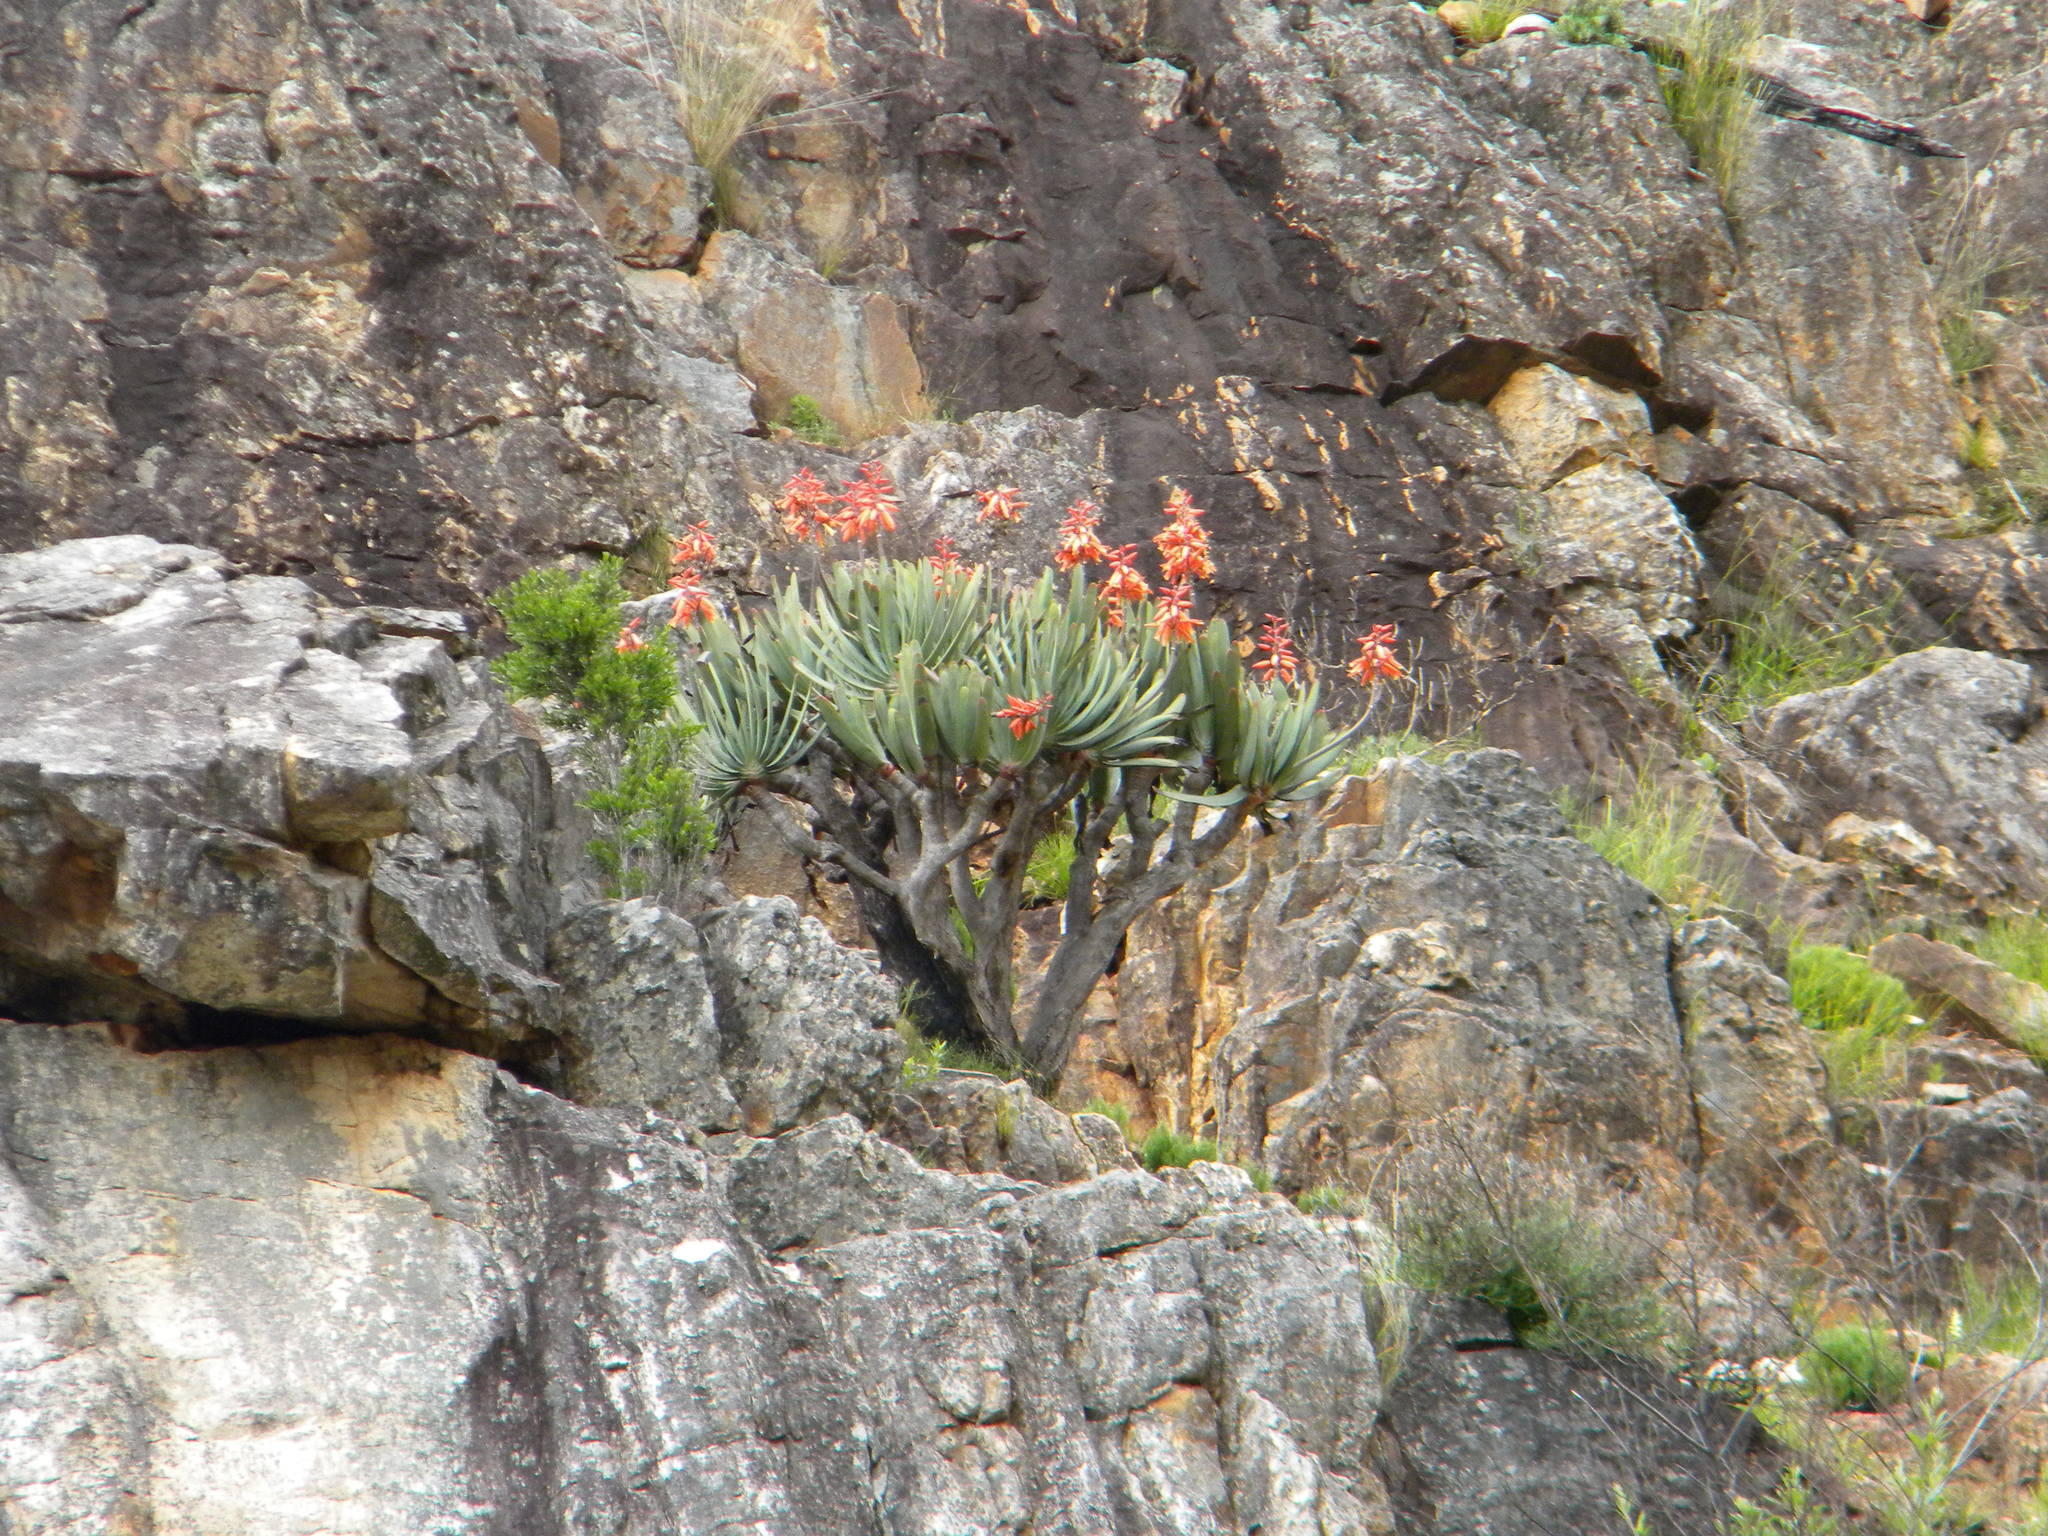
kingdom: Plantae
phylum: Tracheophyta
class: Liliopsida
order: Asparagales
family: Asphodelaceae
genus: Kumara
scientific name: Kumara plicatilis
